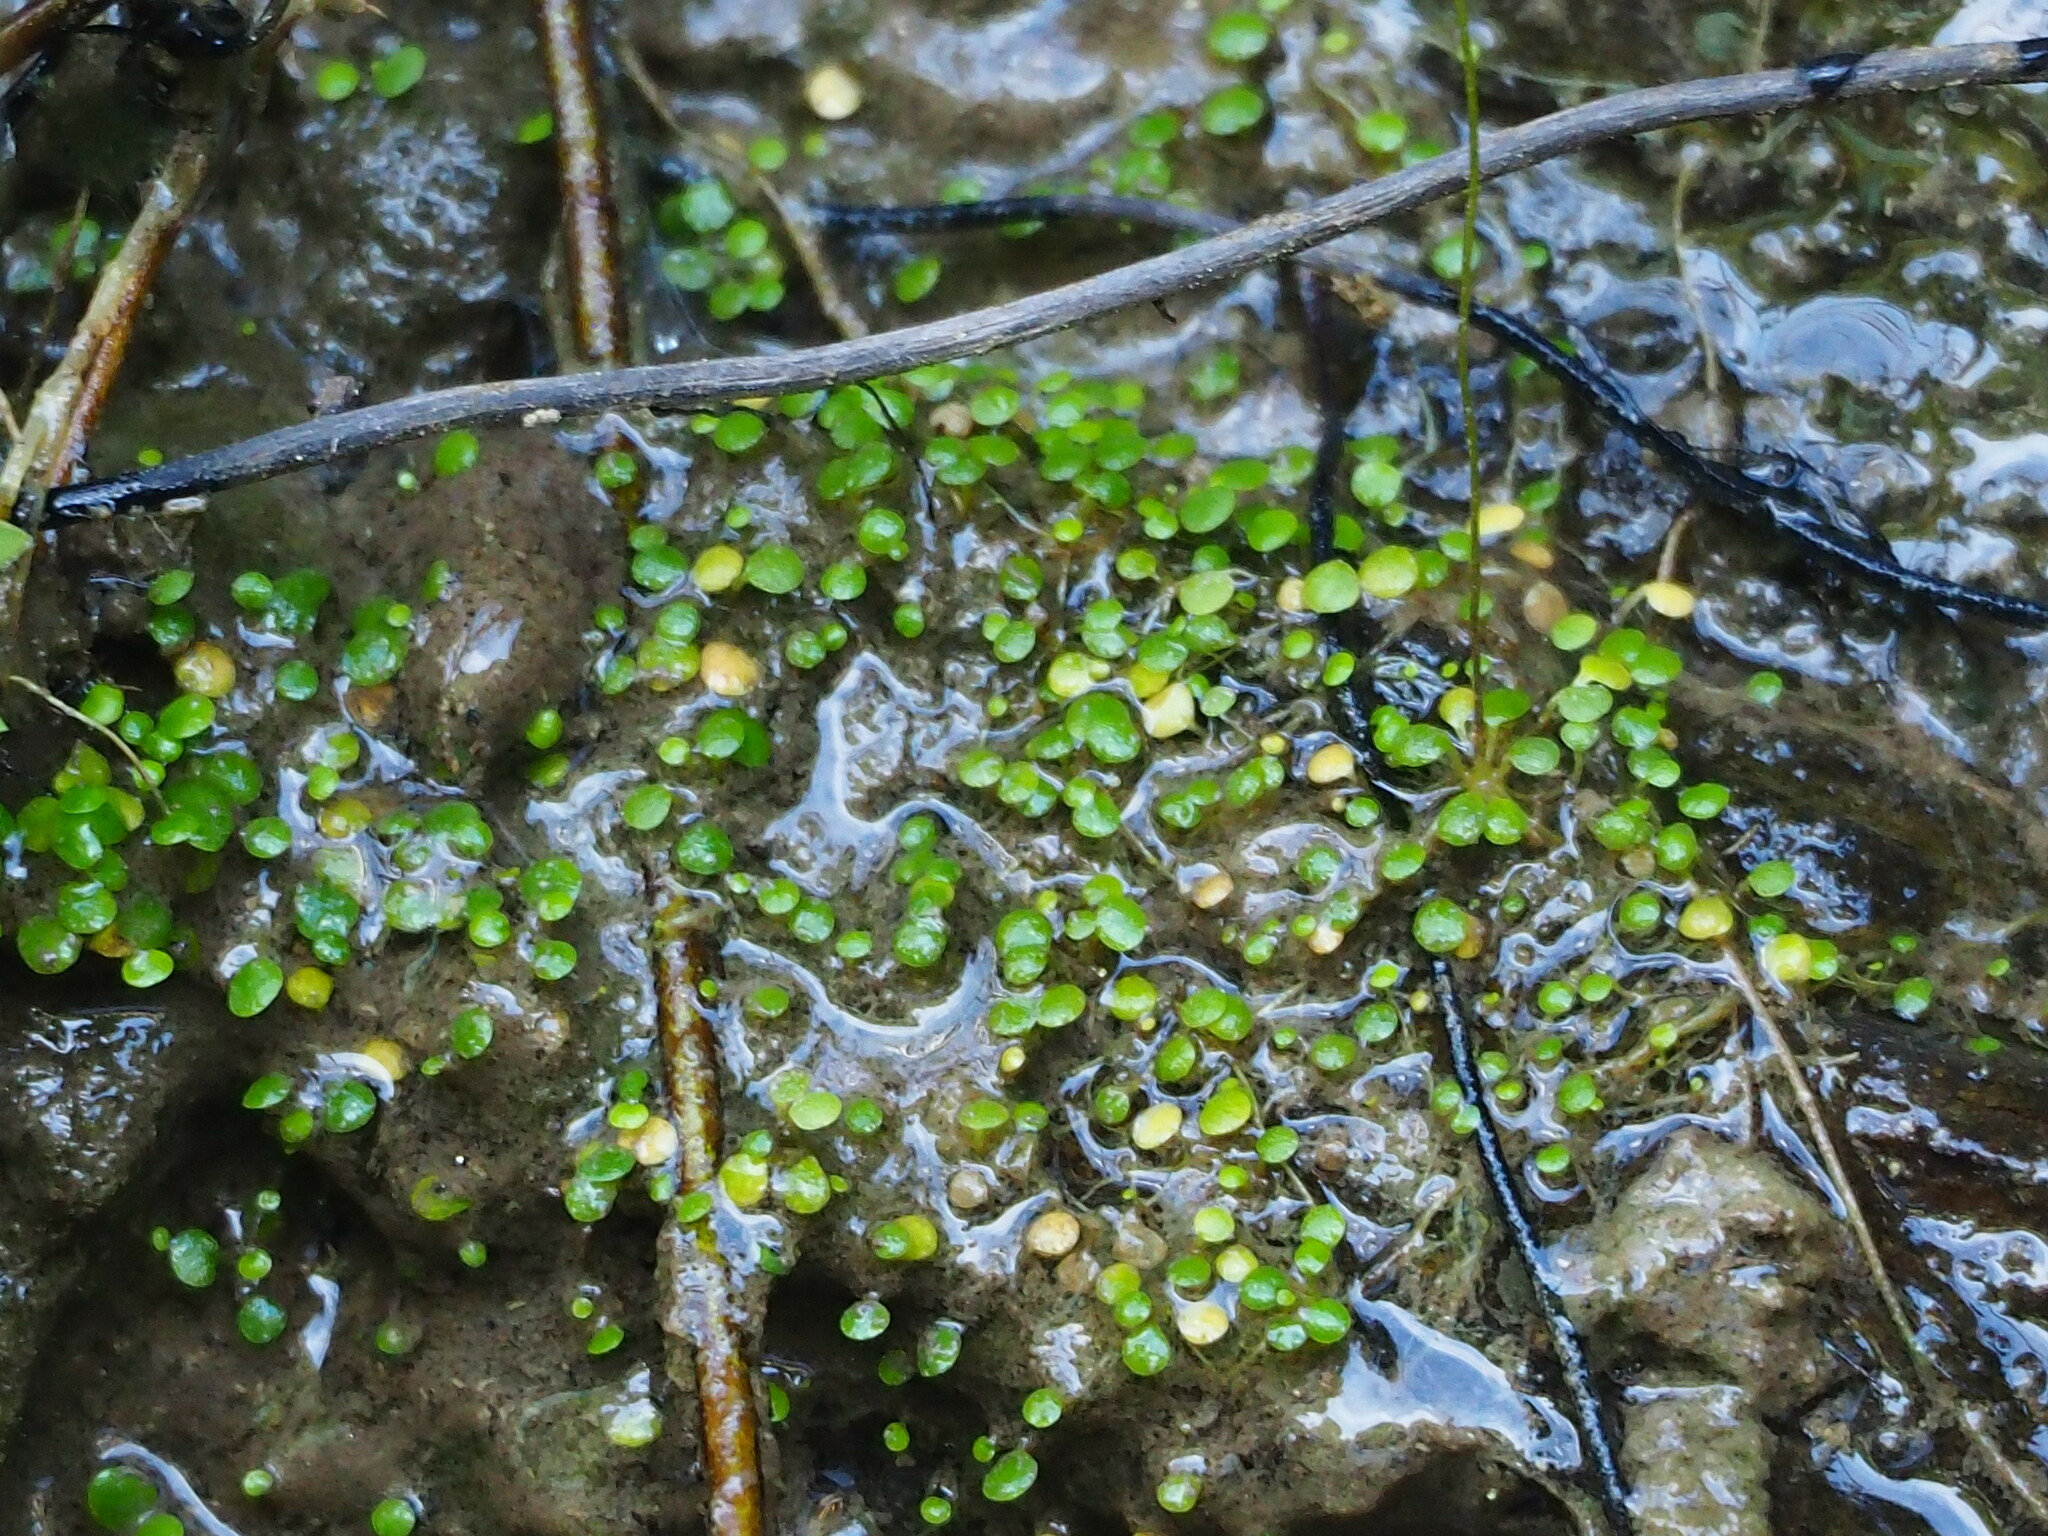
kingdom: Plantae
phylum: Tracheophyta
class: Magnoliopsida
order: Lamiales
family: Lentibulariaceae
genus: Utricularia
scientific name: Utricularia striatula
